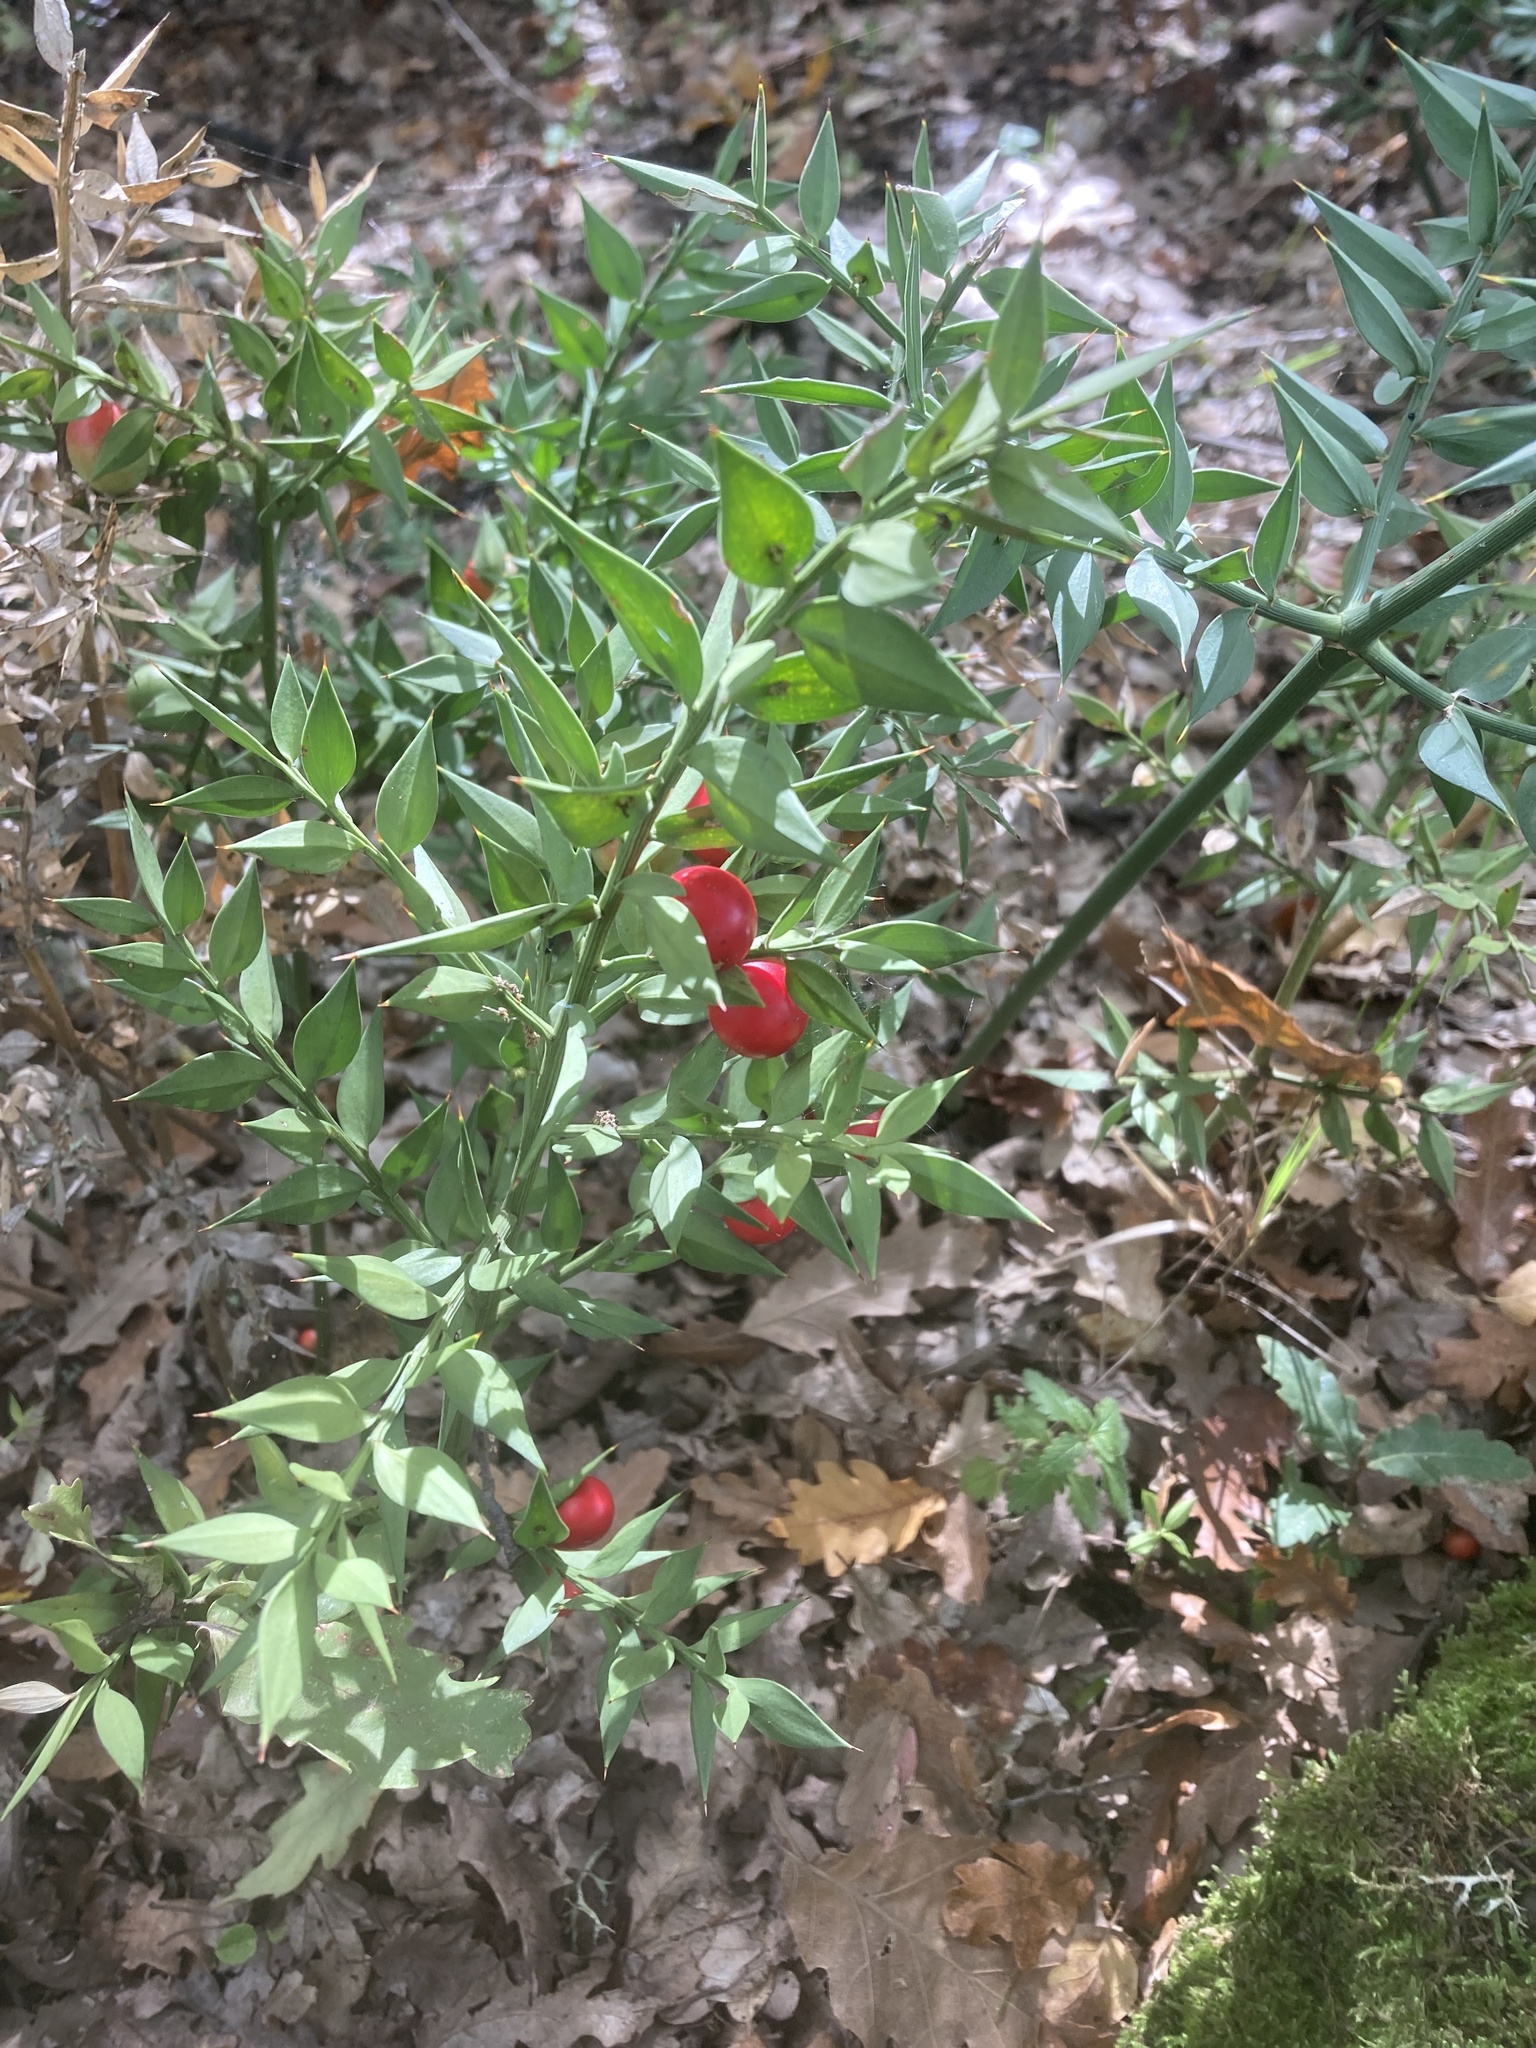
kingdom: Plantae
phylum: Tracheophyta
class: Liliopsida
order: Asparagales
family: Asparagaceae
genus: Ruscus
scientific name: Ruscus aculeatus
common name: Butcher's-broom
